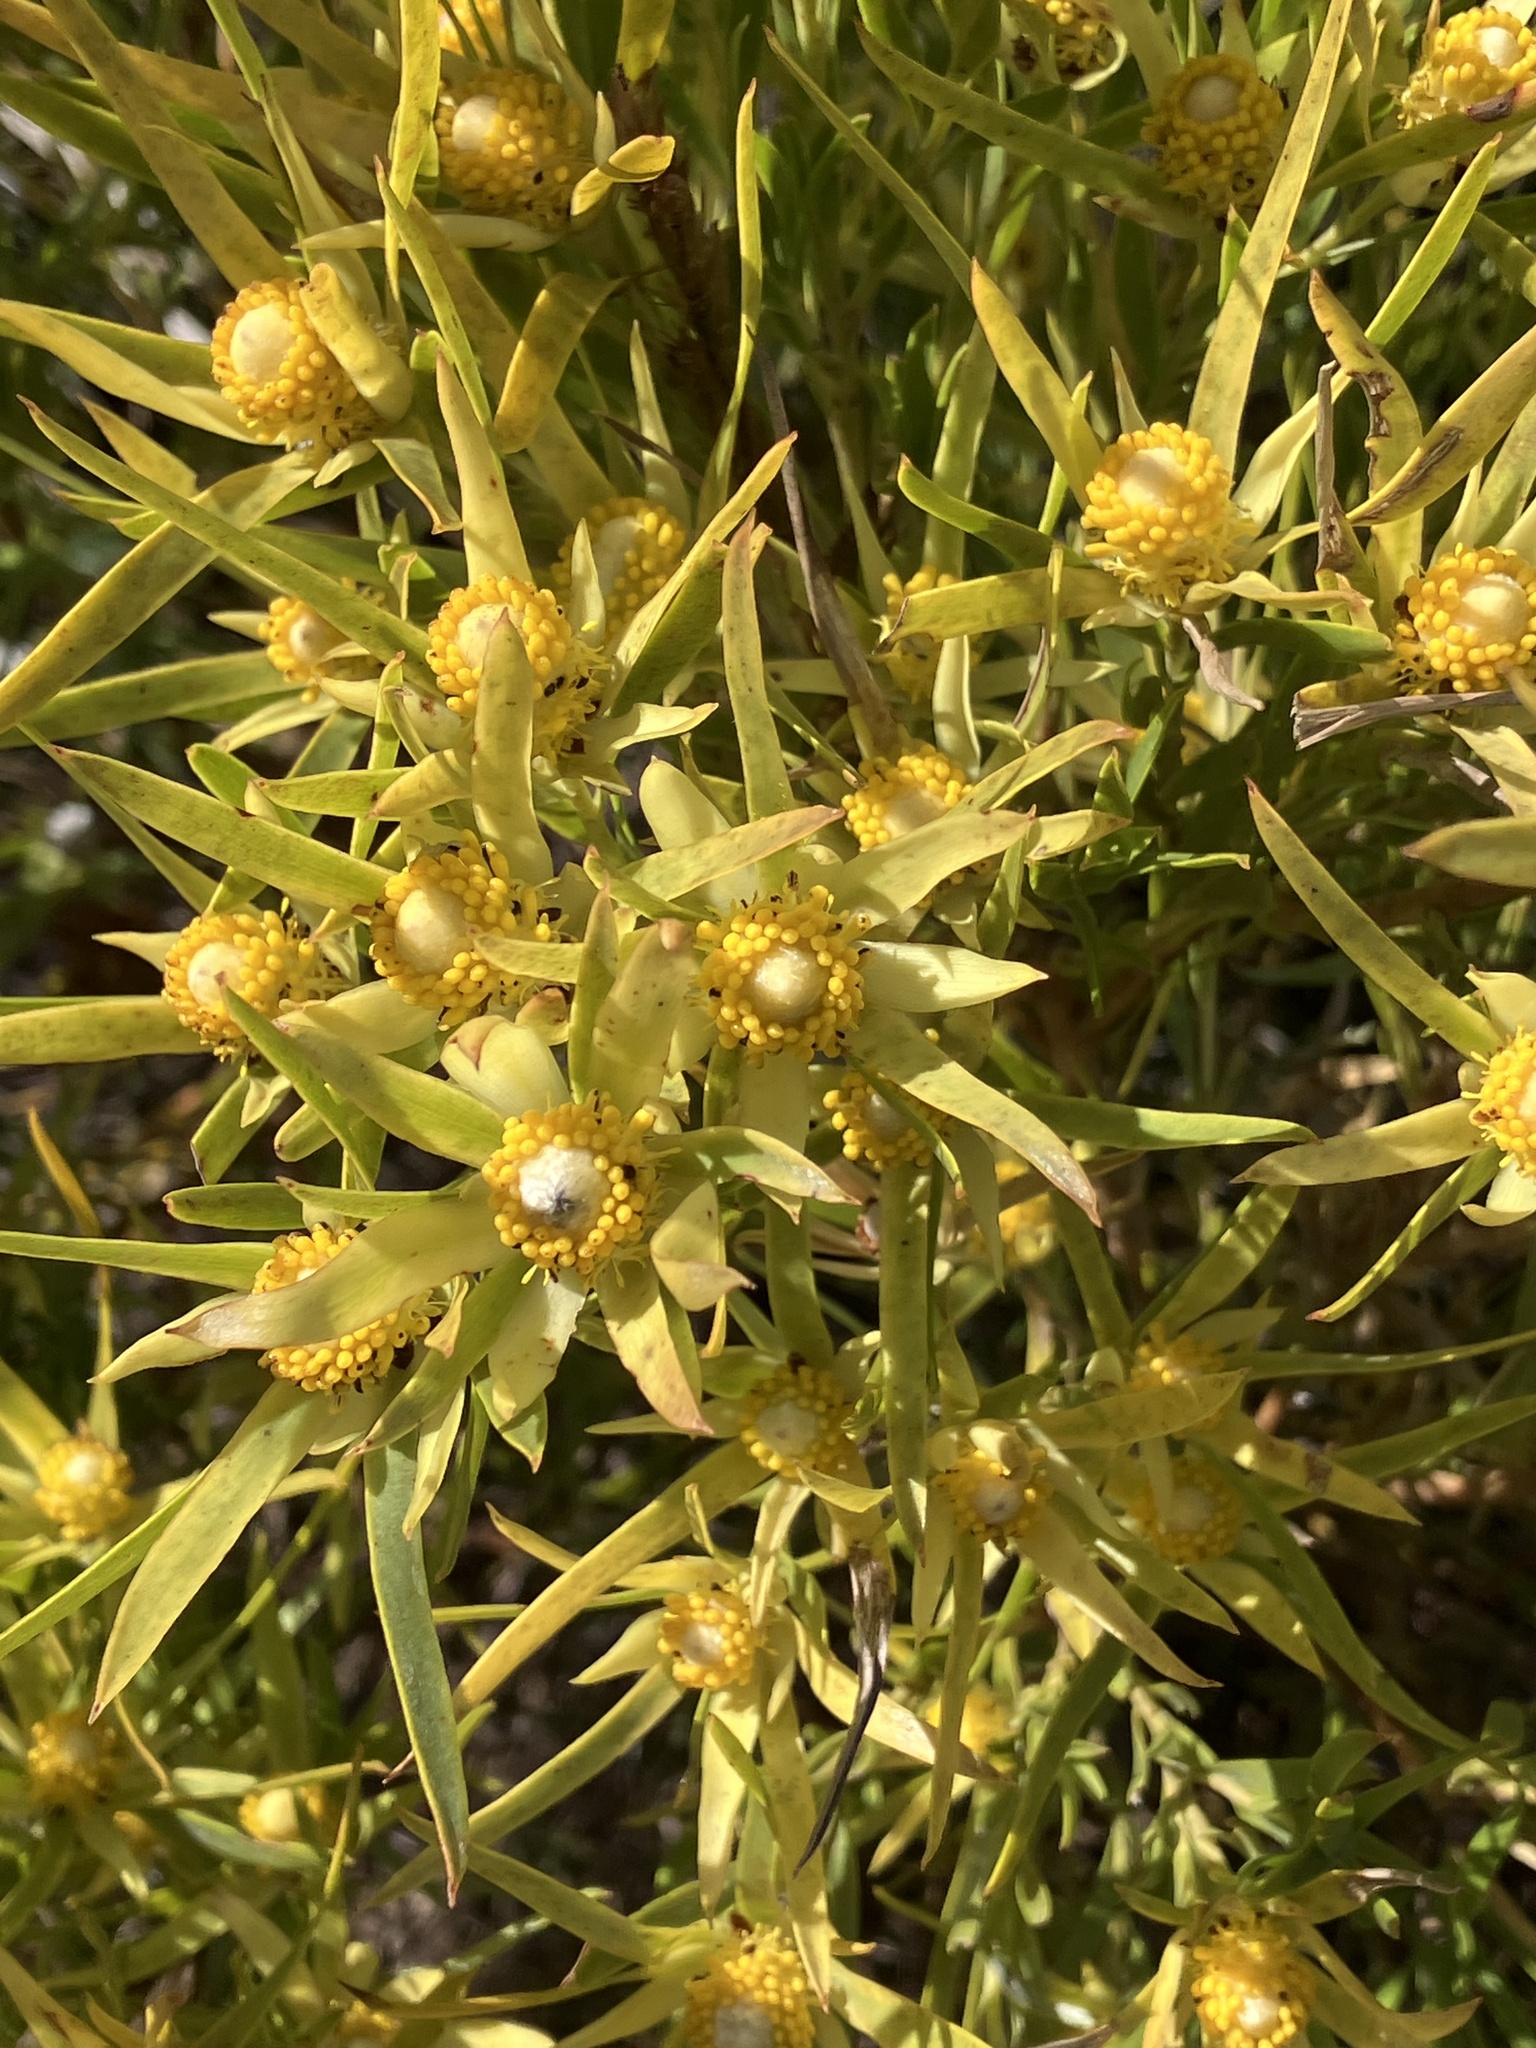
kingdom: Plantae
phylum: Tracheophyta
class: Magnoliopsida
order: Proteales
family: Proteaceae
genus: Leucadendron
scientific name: Leucadendron xanthoconus
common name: Sickle-leaf conebush
